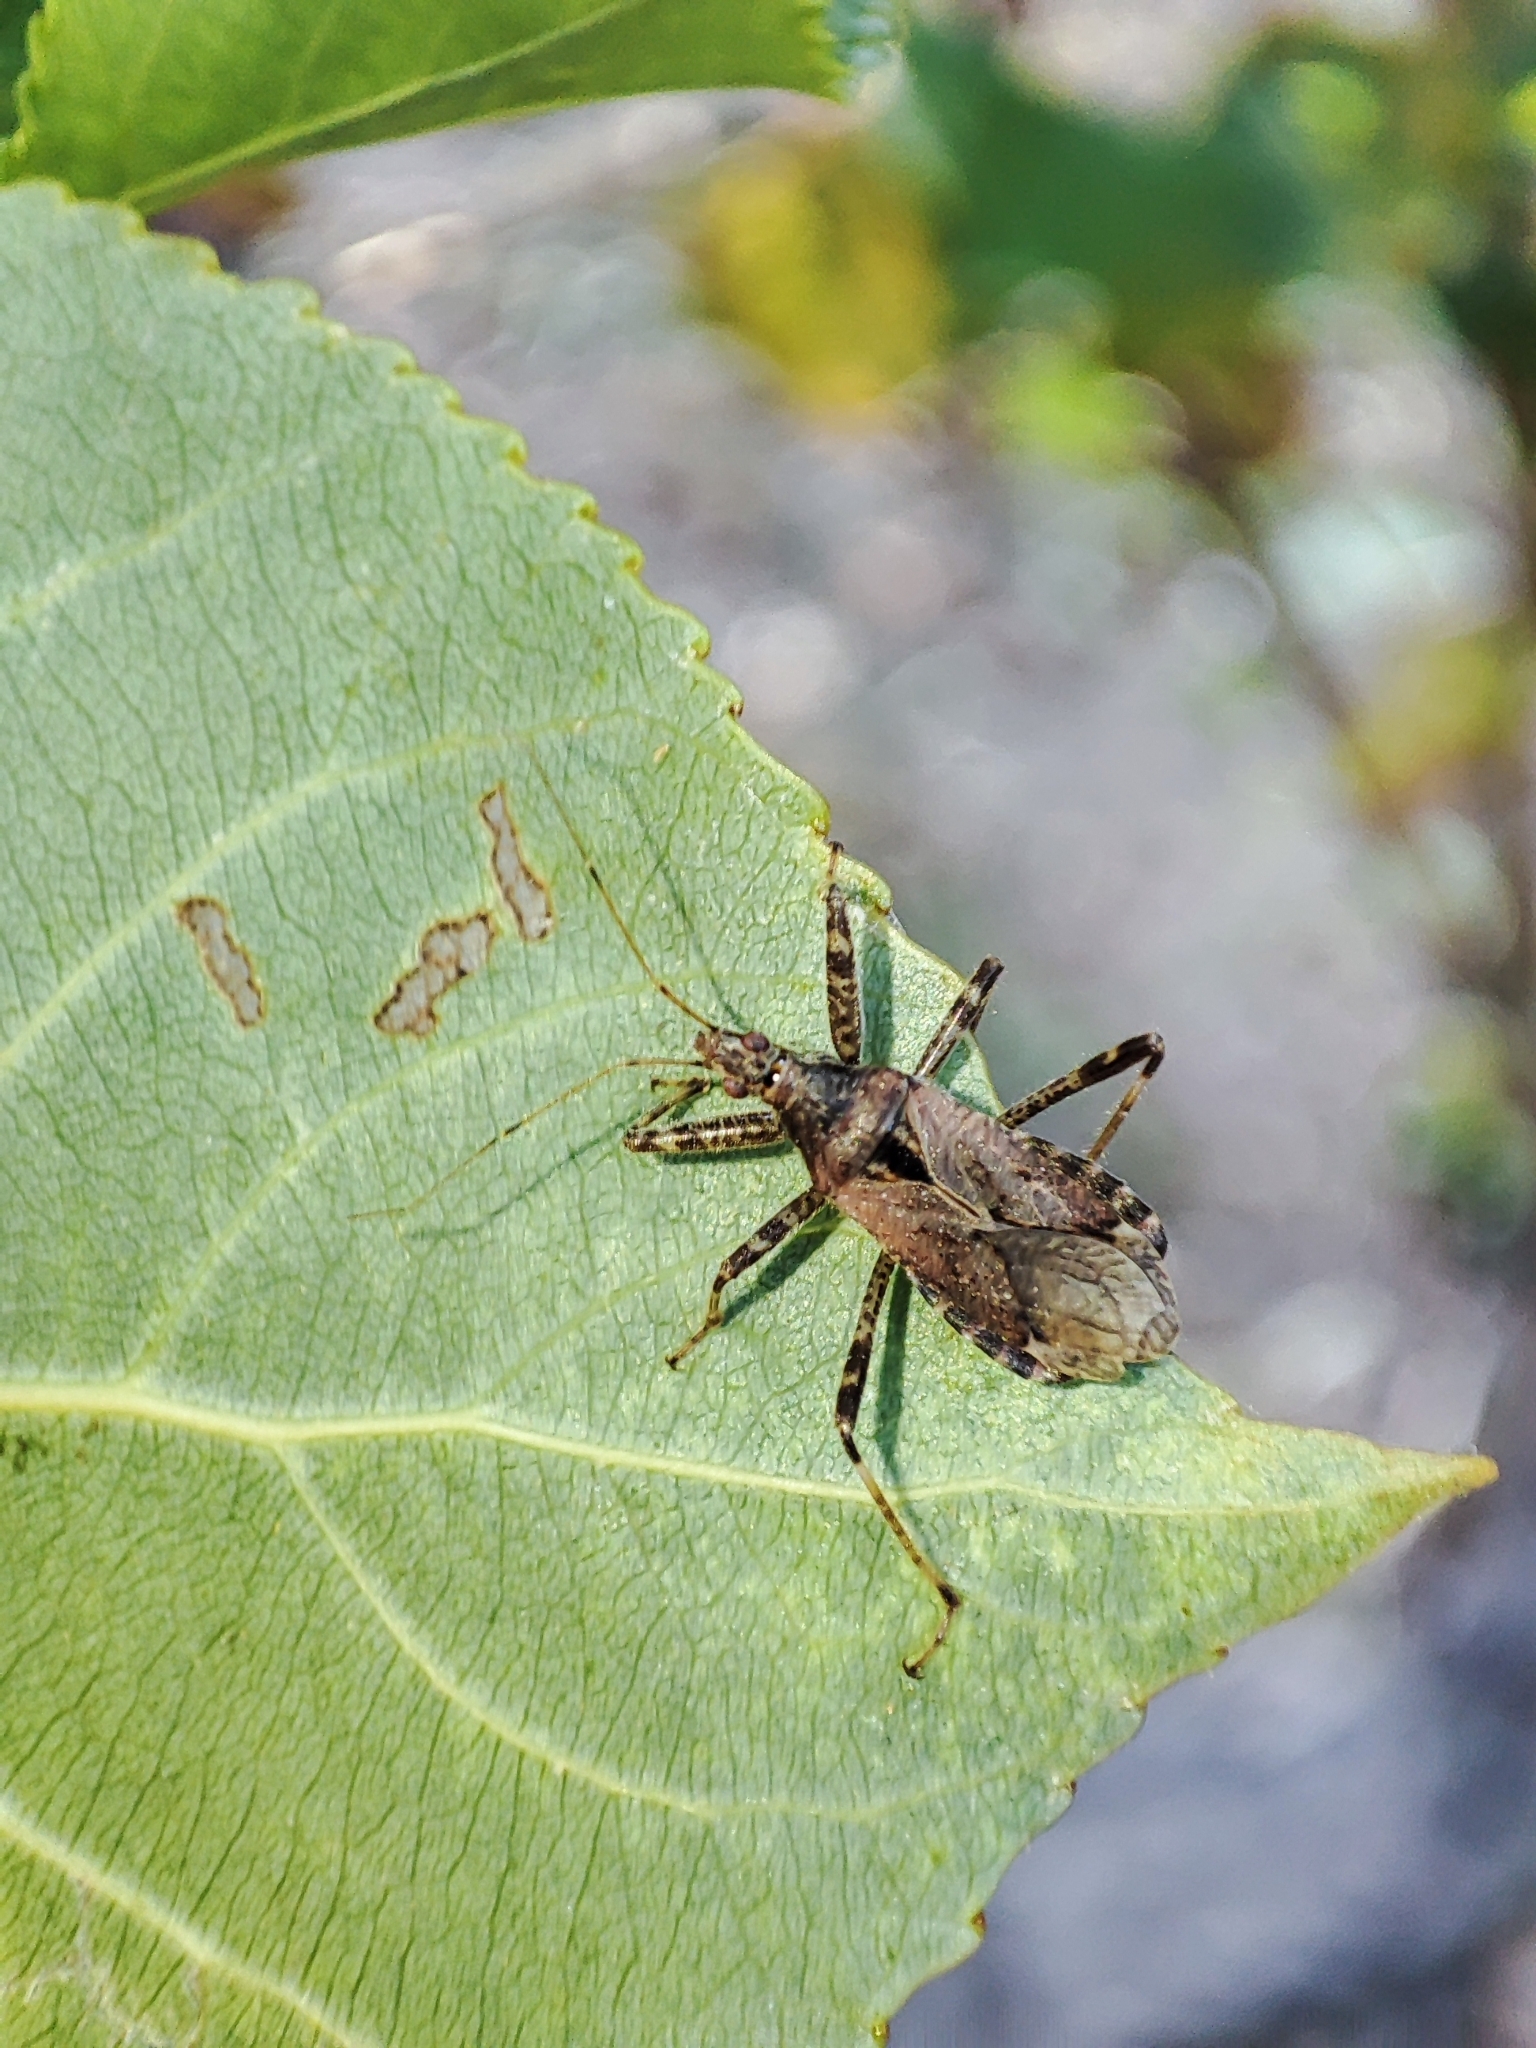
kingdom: Animalia
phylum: Arthropoda
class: Insecta
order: Hemiptera
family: Nabidae
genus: Himacerus
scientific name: Himacerus apterus
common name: Tree damsel bug
